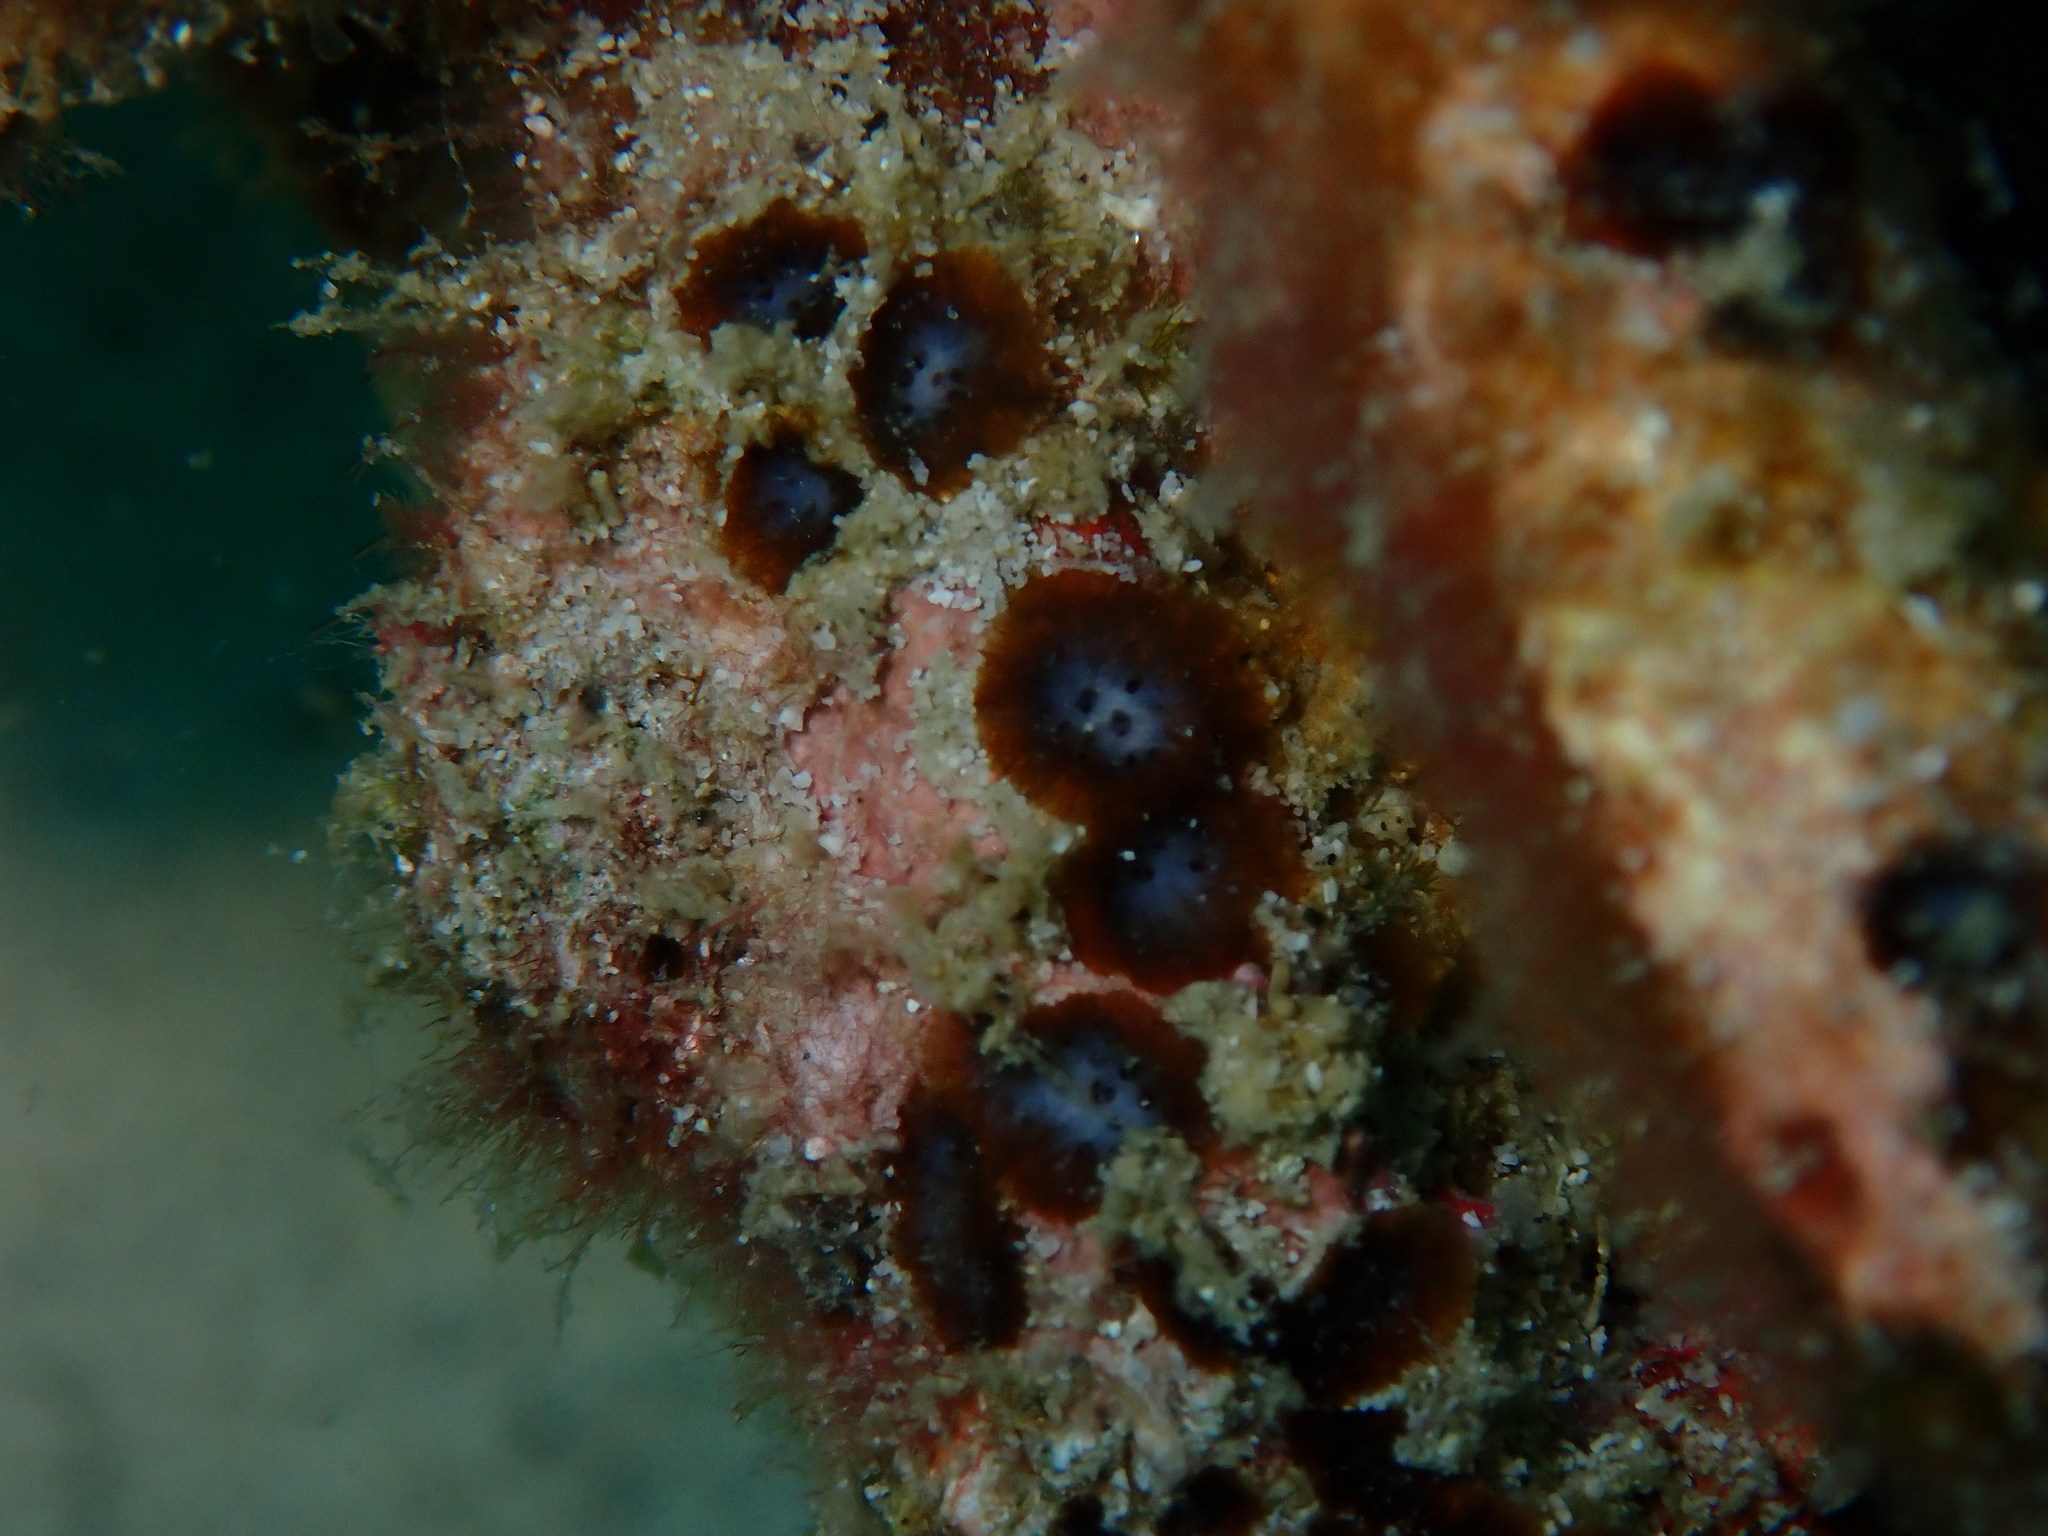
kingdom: Animalia
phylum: Porifera
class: Demospongiae
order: Clionaida
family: Clionaidae
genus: Cliona
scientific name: Cliona caesia
